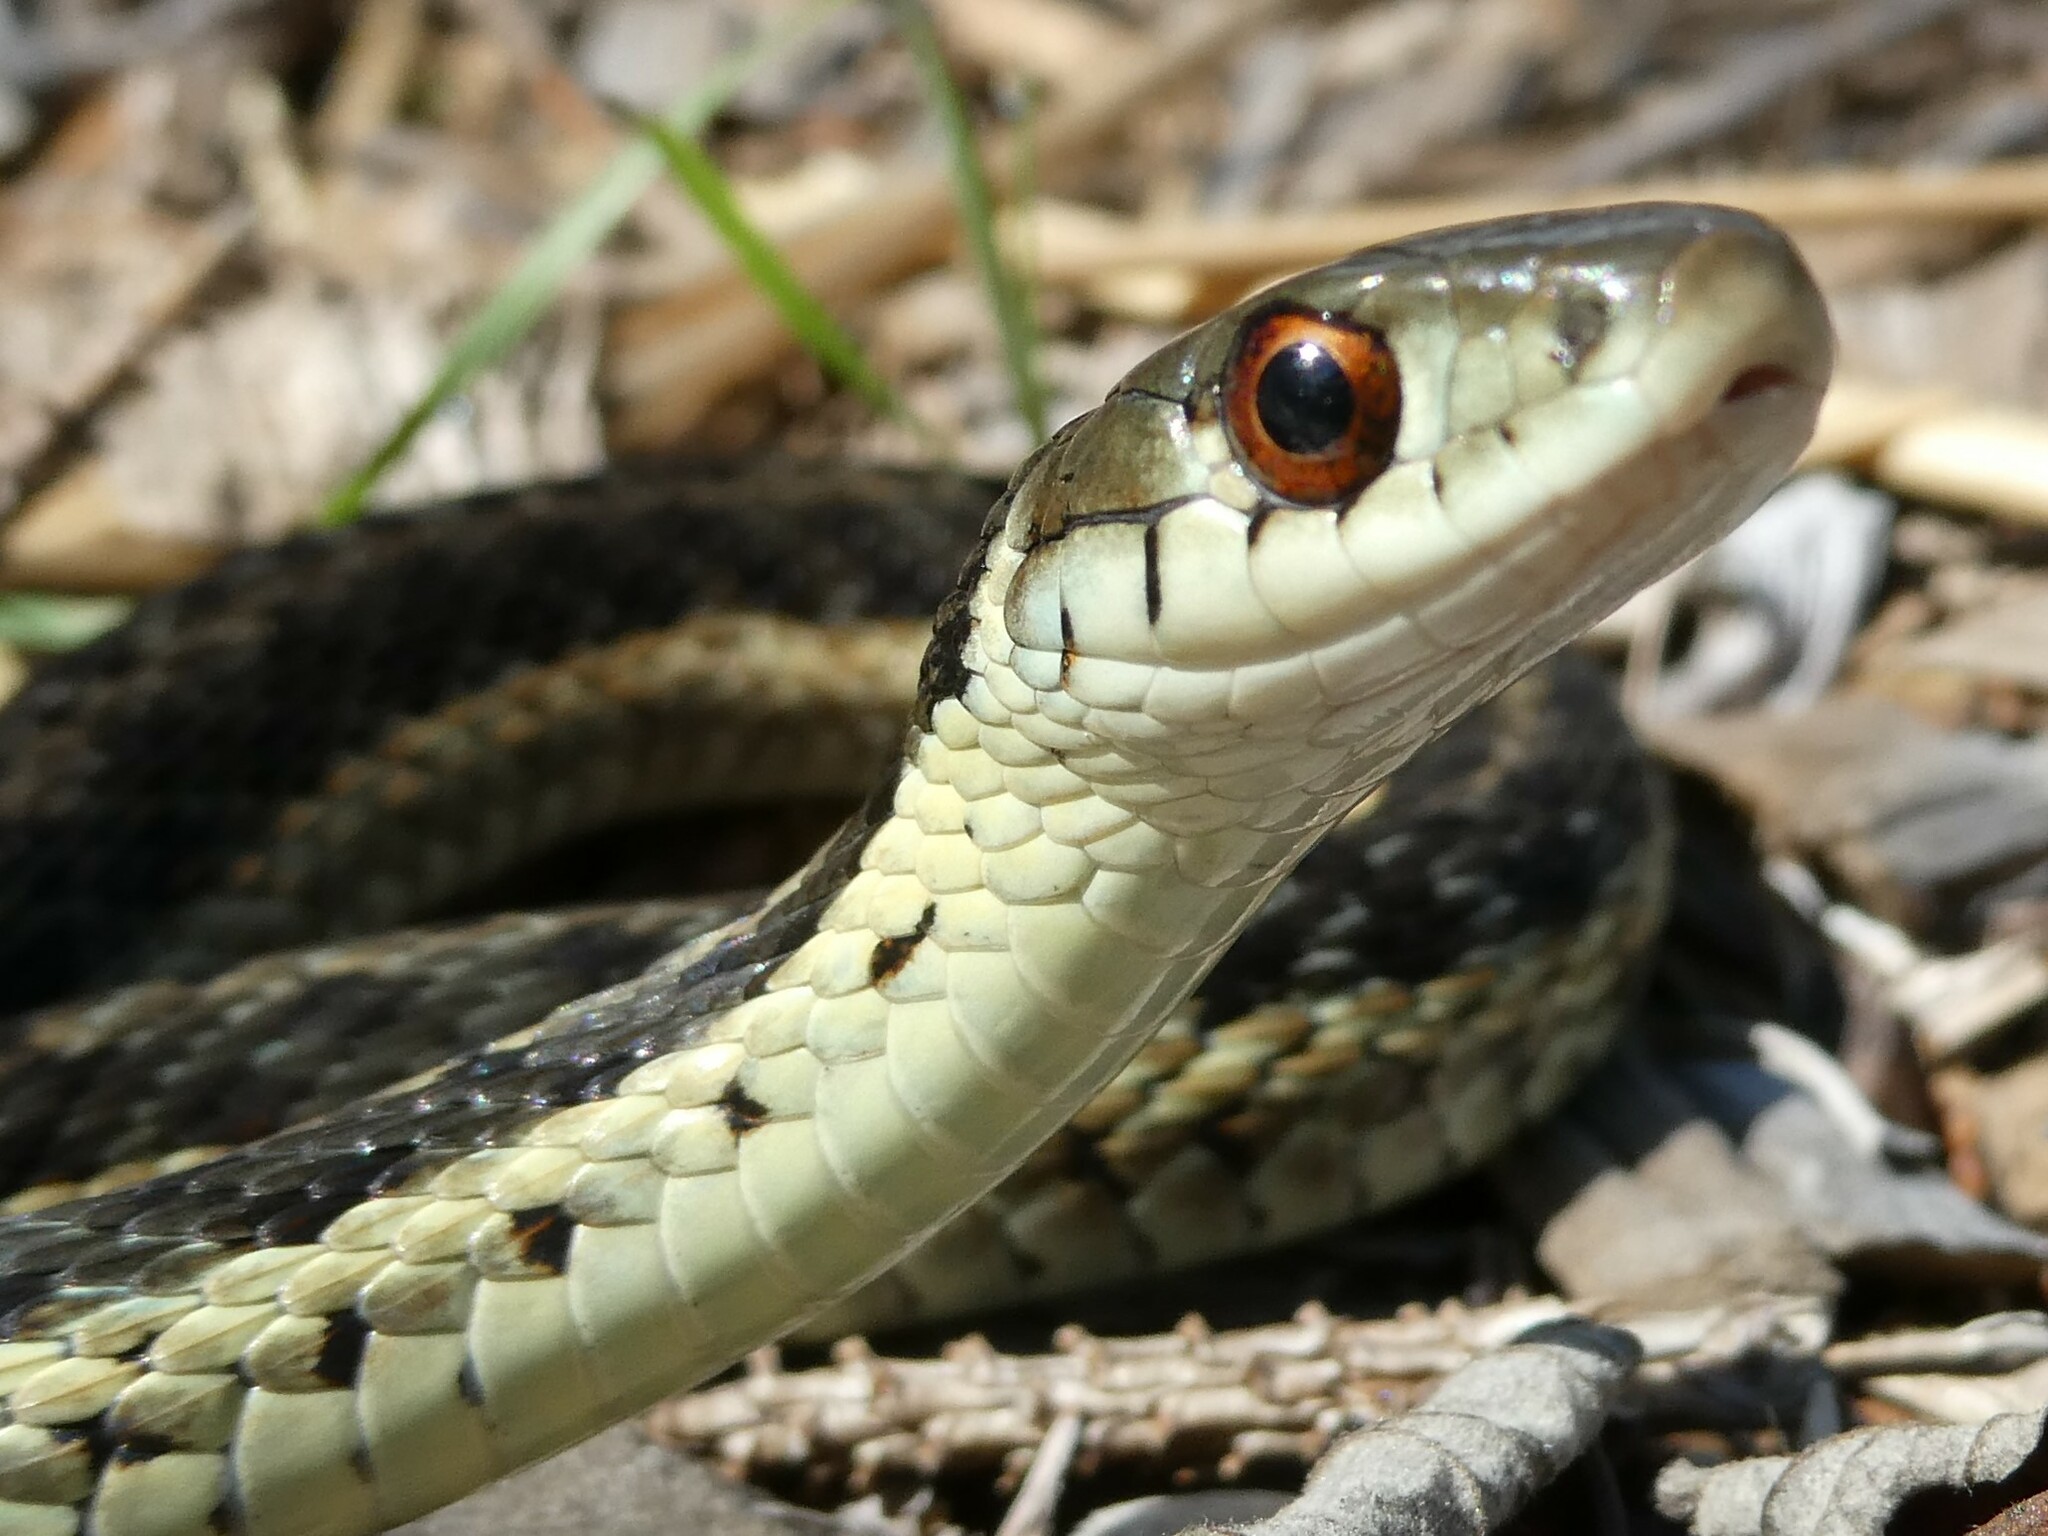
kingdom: Animalia
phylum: Chordata
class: Squamata
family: Colubridae
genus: Thamnophis
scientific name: Thamnophis sirtalis
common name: Common garter snake
